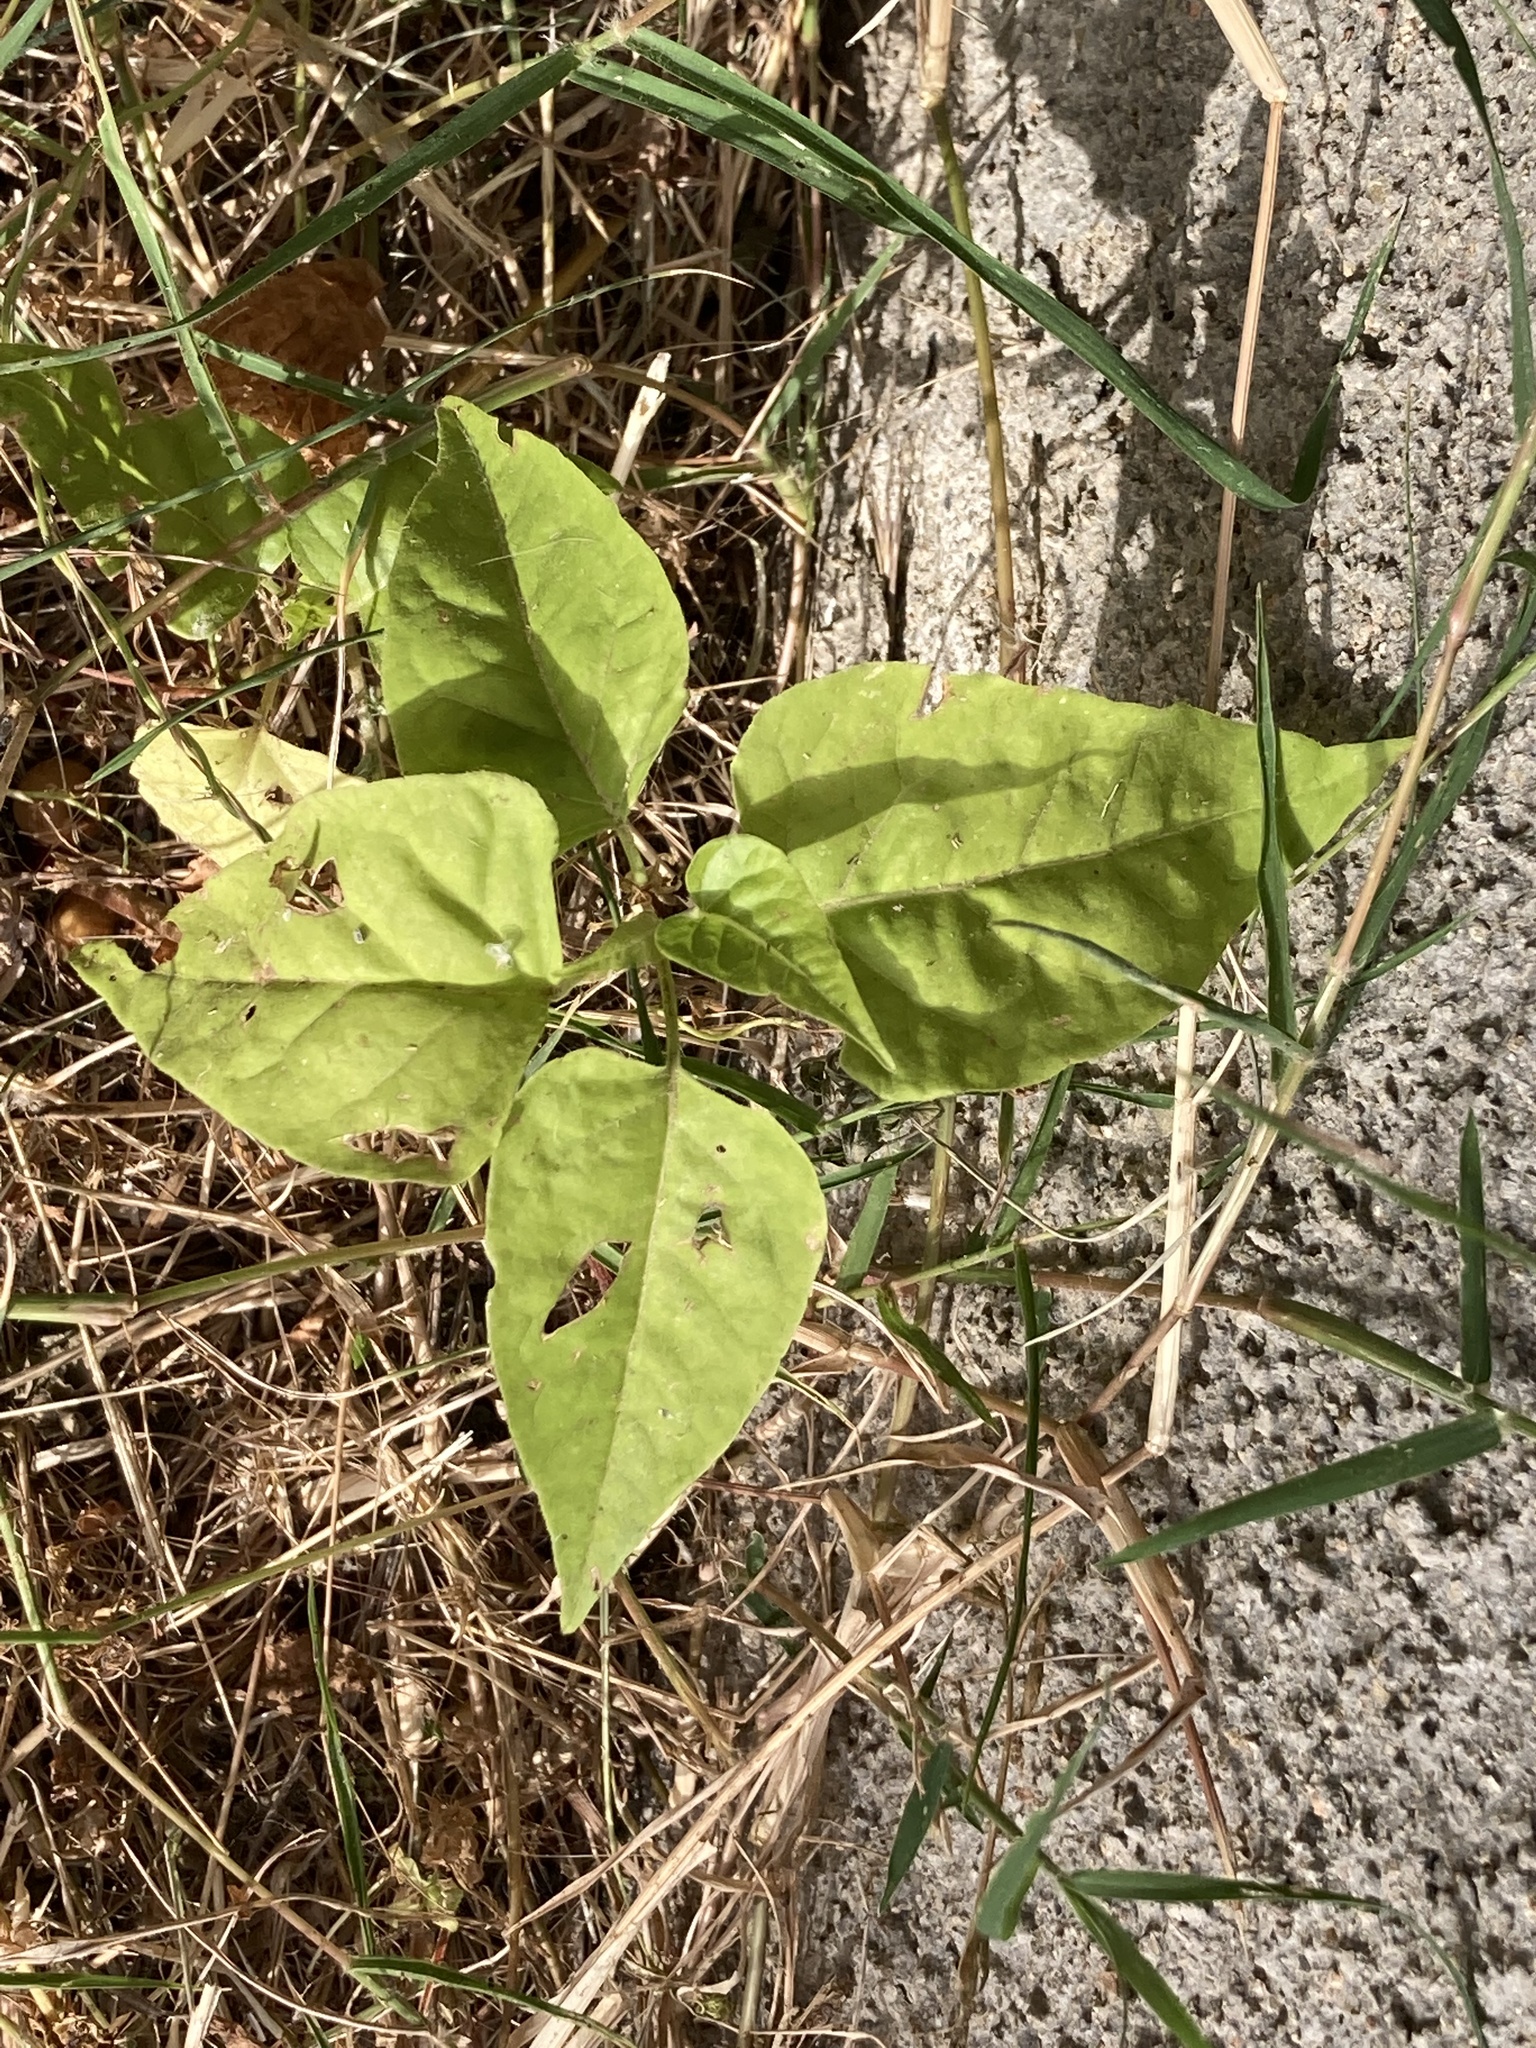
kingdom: Plantae
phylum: Tracheophyta
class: Magnoliopsida
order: Caryophyllales
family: Nyctaginaceae
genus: Mirabilis
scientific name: Mirabilis jalapa
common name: Marvel-of-peru
